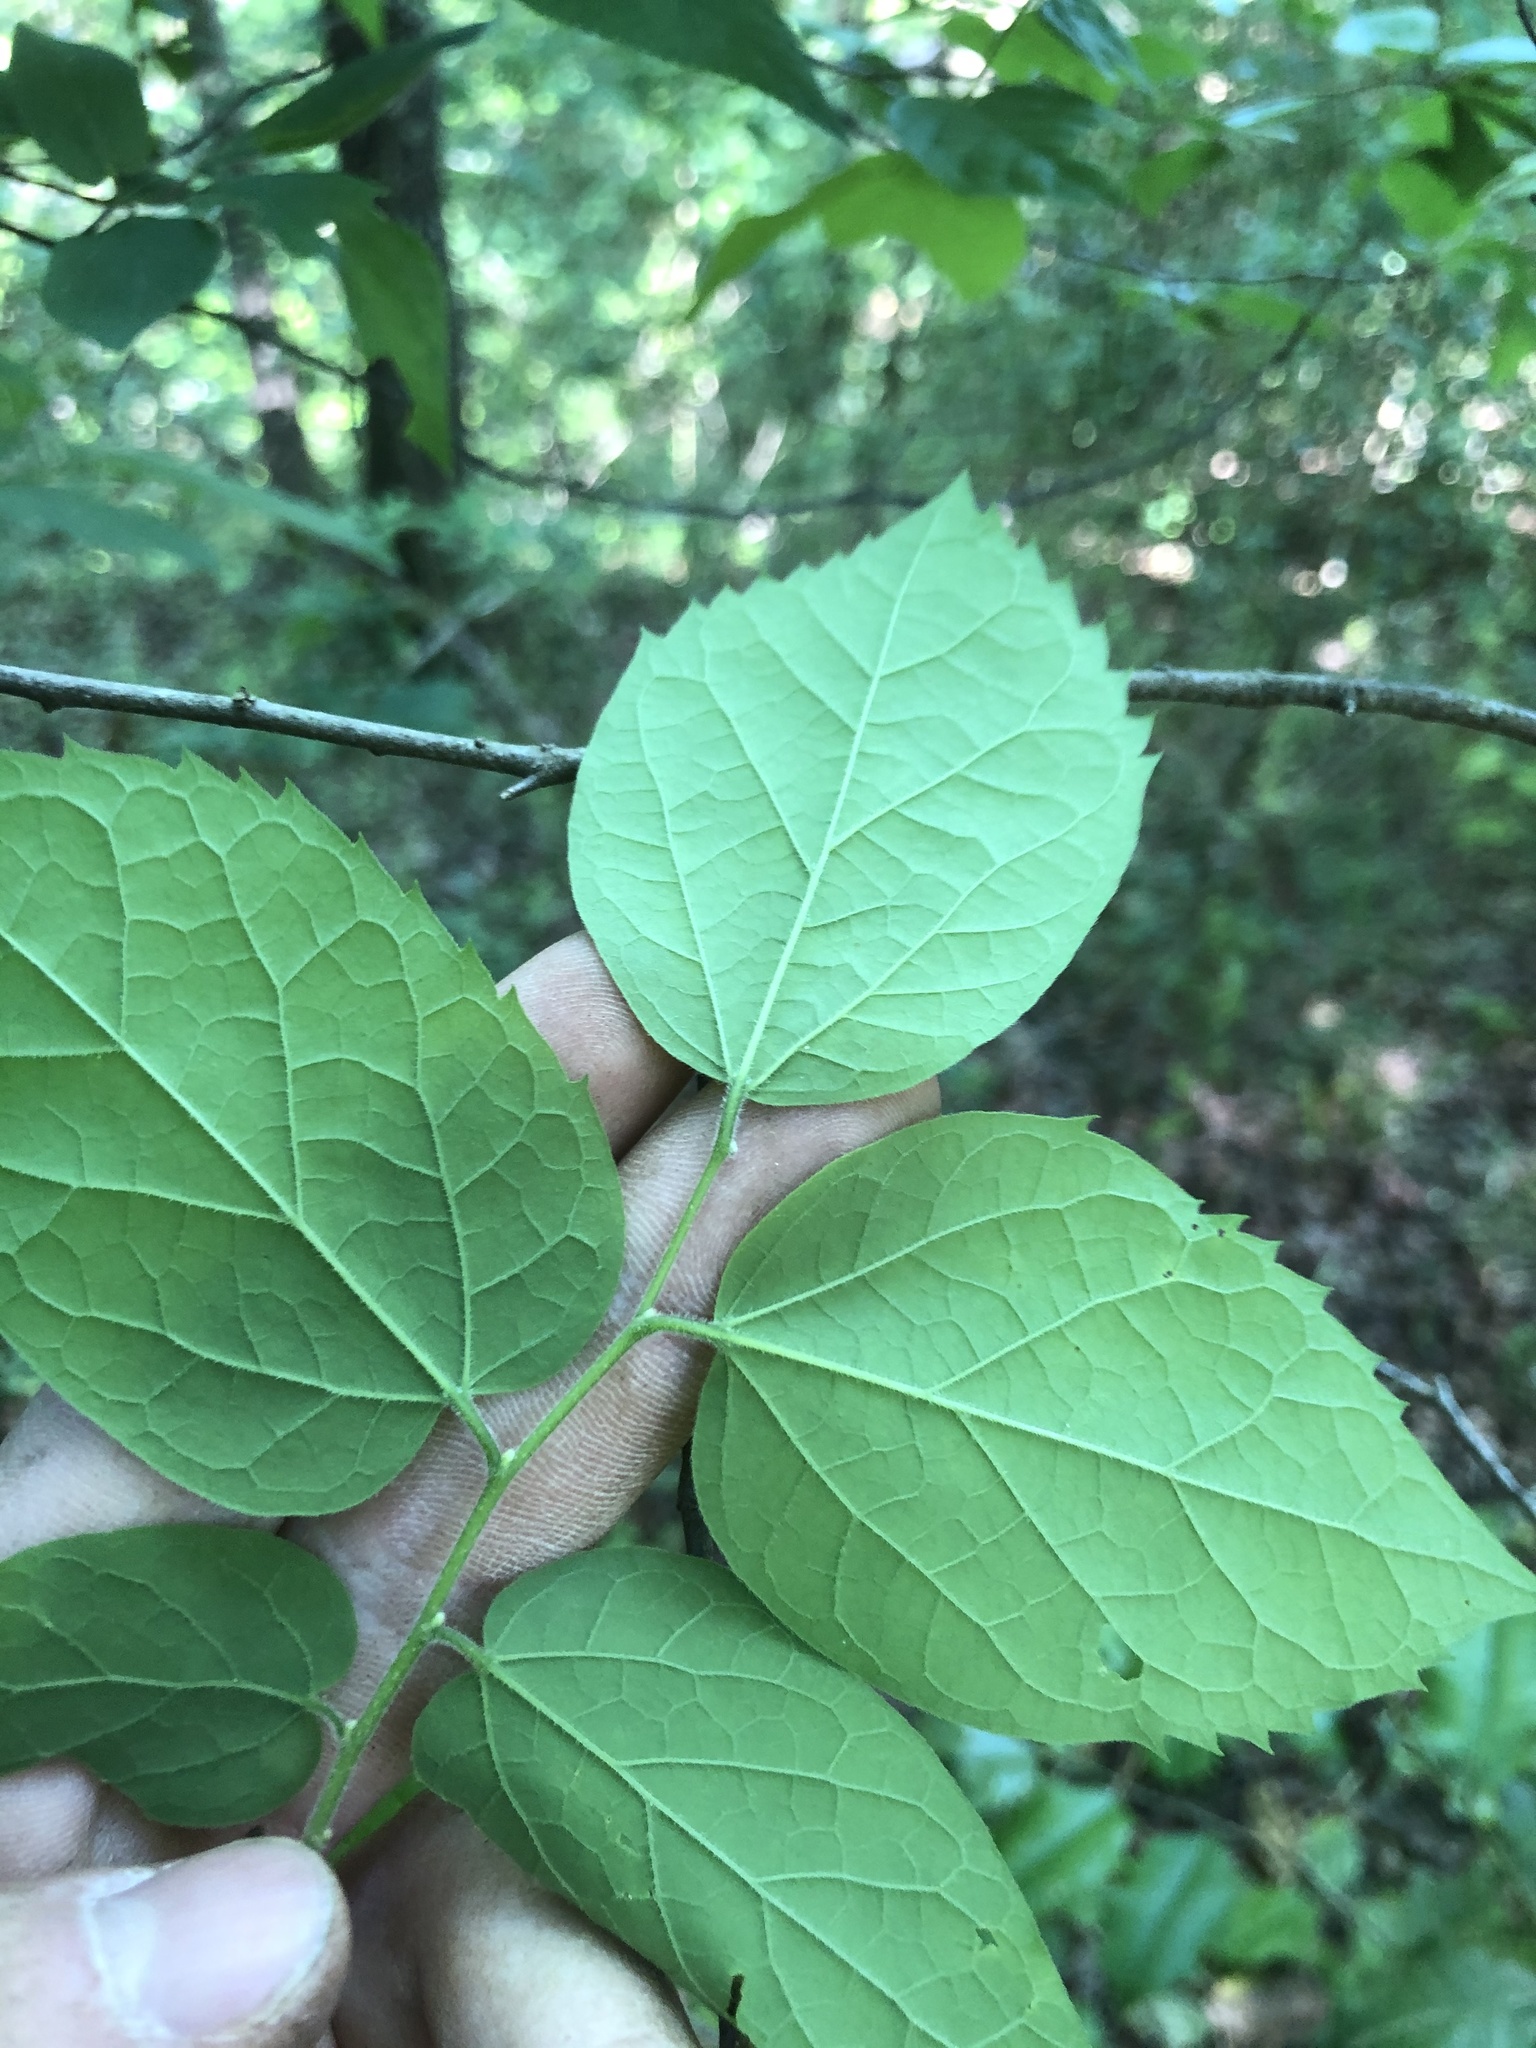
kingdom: Plantae
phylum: Tracheophyta
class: Magnoliopsida
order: Rosales
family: Cannabaceae
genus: Celtis
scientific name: Celtis tenuifolia
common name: Georgia hackberry
